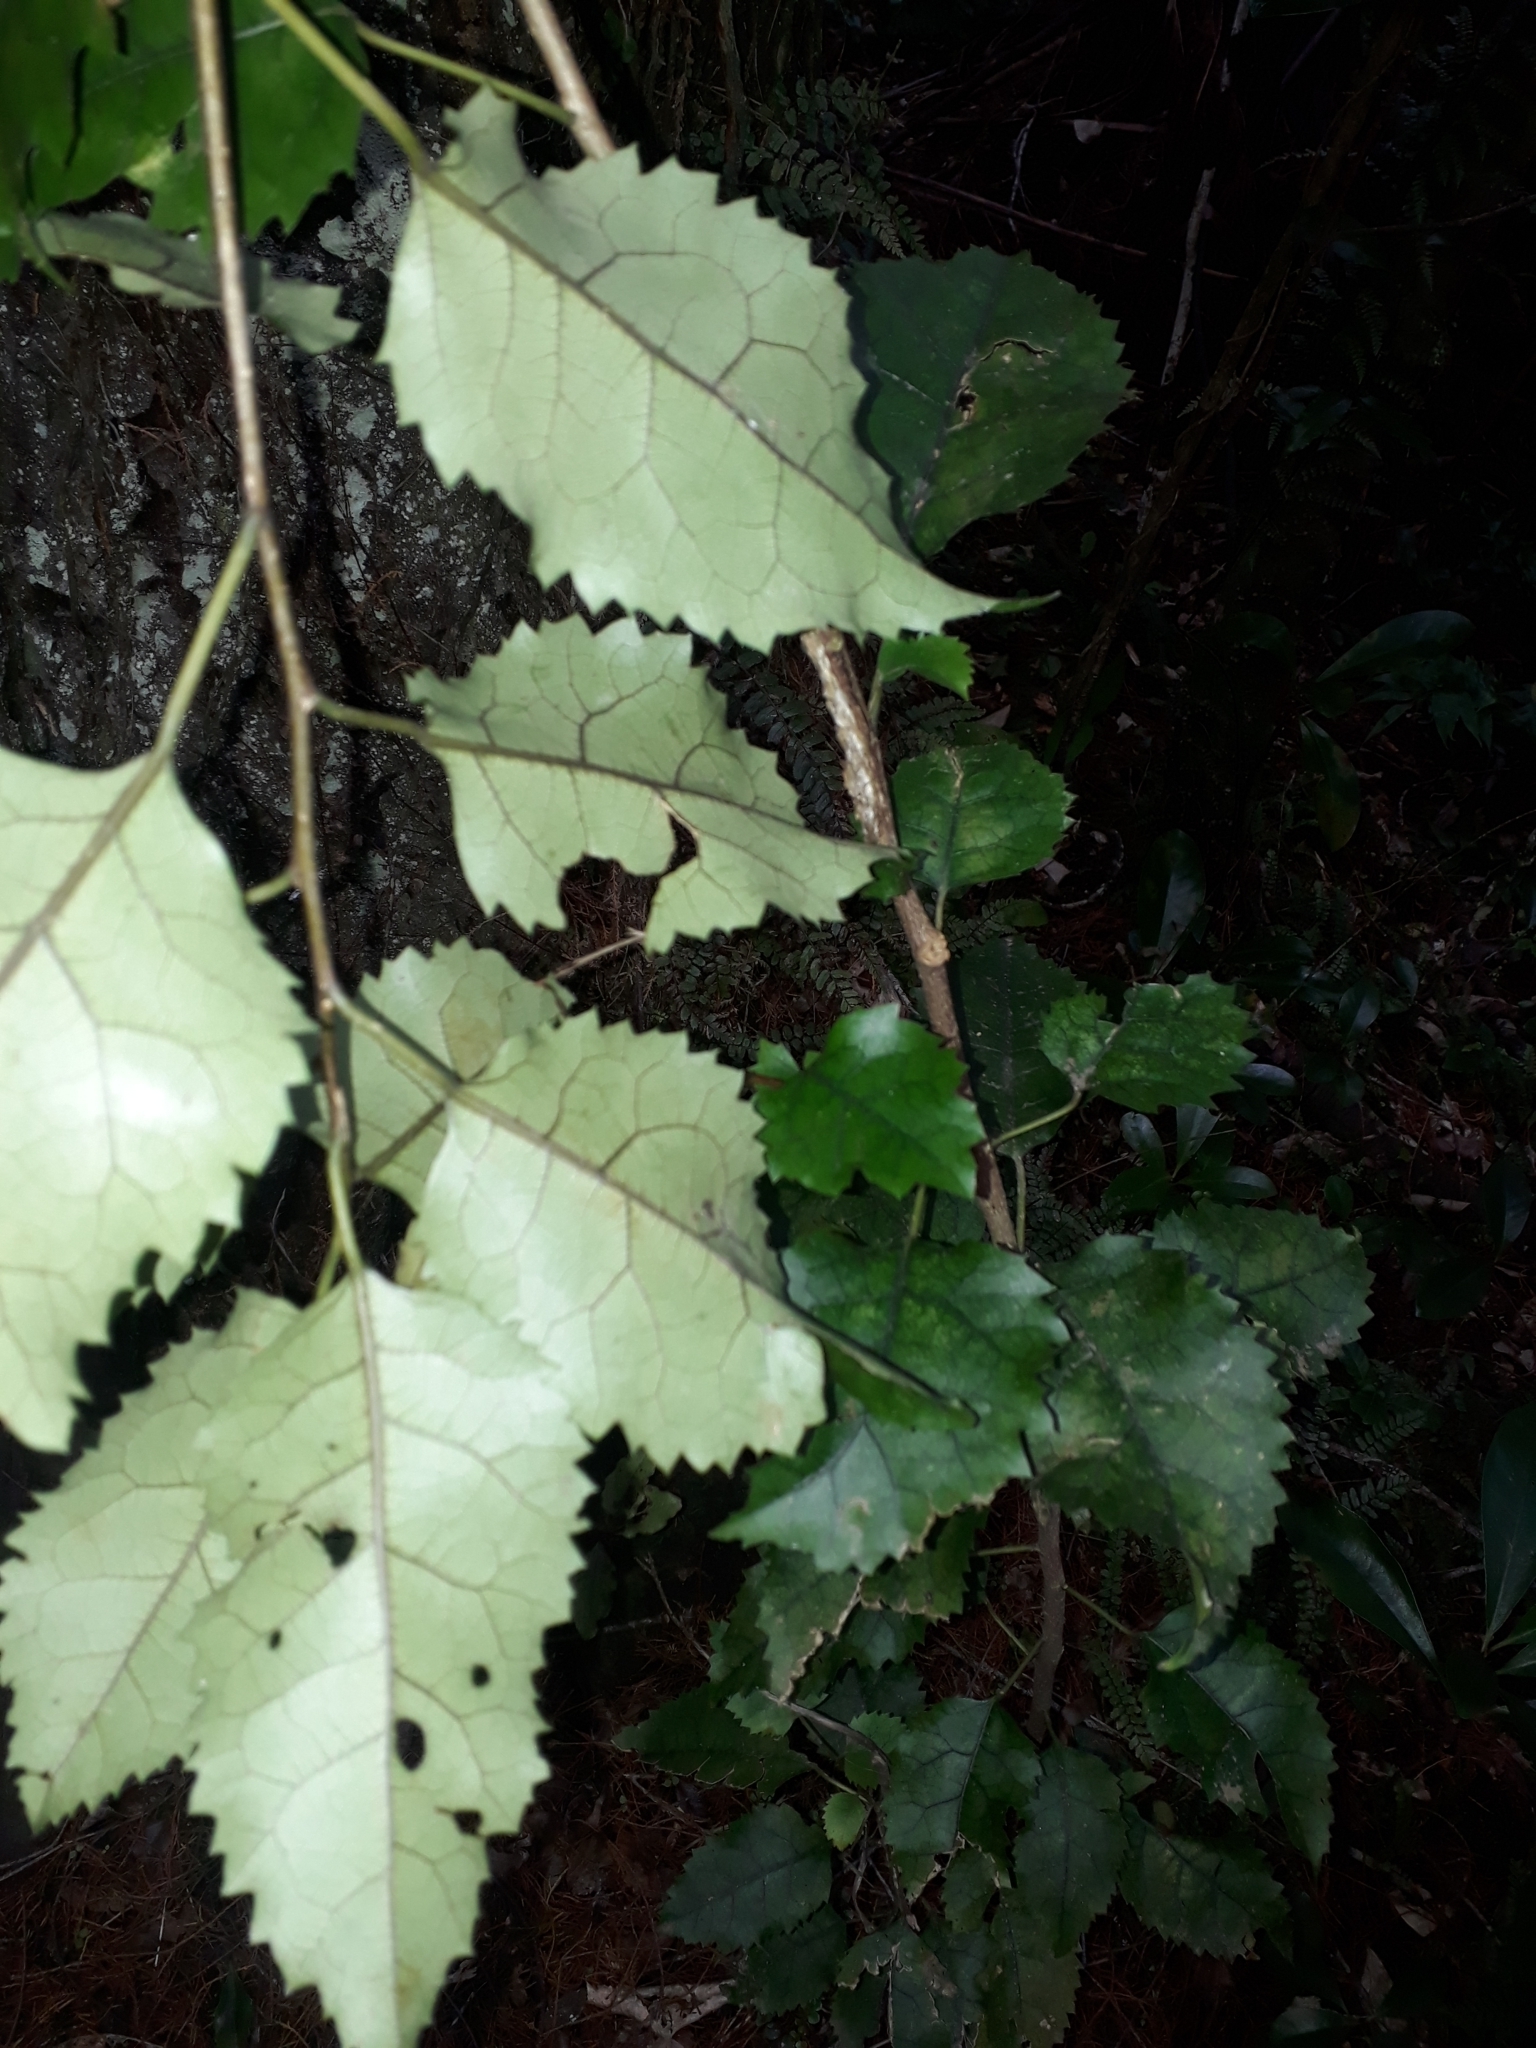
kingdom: Plantae
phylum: Tracheophyta
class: Magnoliopsida
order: Malvales
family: Malvaceae
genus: Hoheria
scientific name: Hoheria populnea
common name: Lacebark
